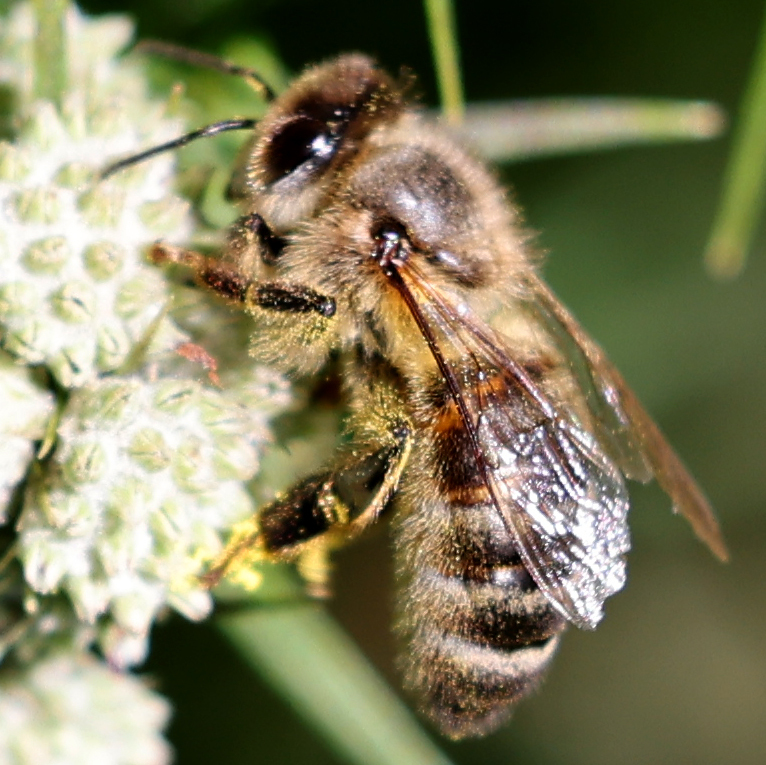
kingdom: Animalia
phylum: Arthropoda
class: Insecta
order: Hymenoptera
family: Apidae
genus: Apis
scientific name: Apis mellifera
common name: Honey bee
